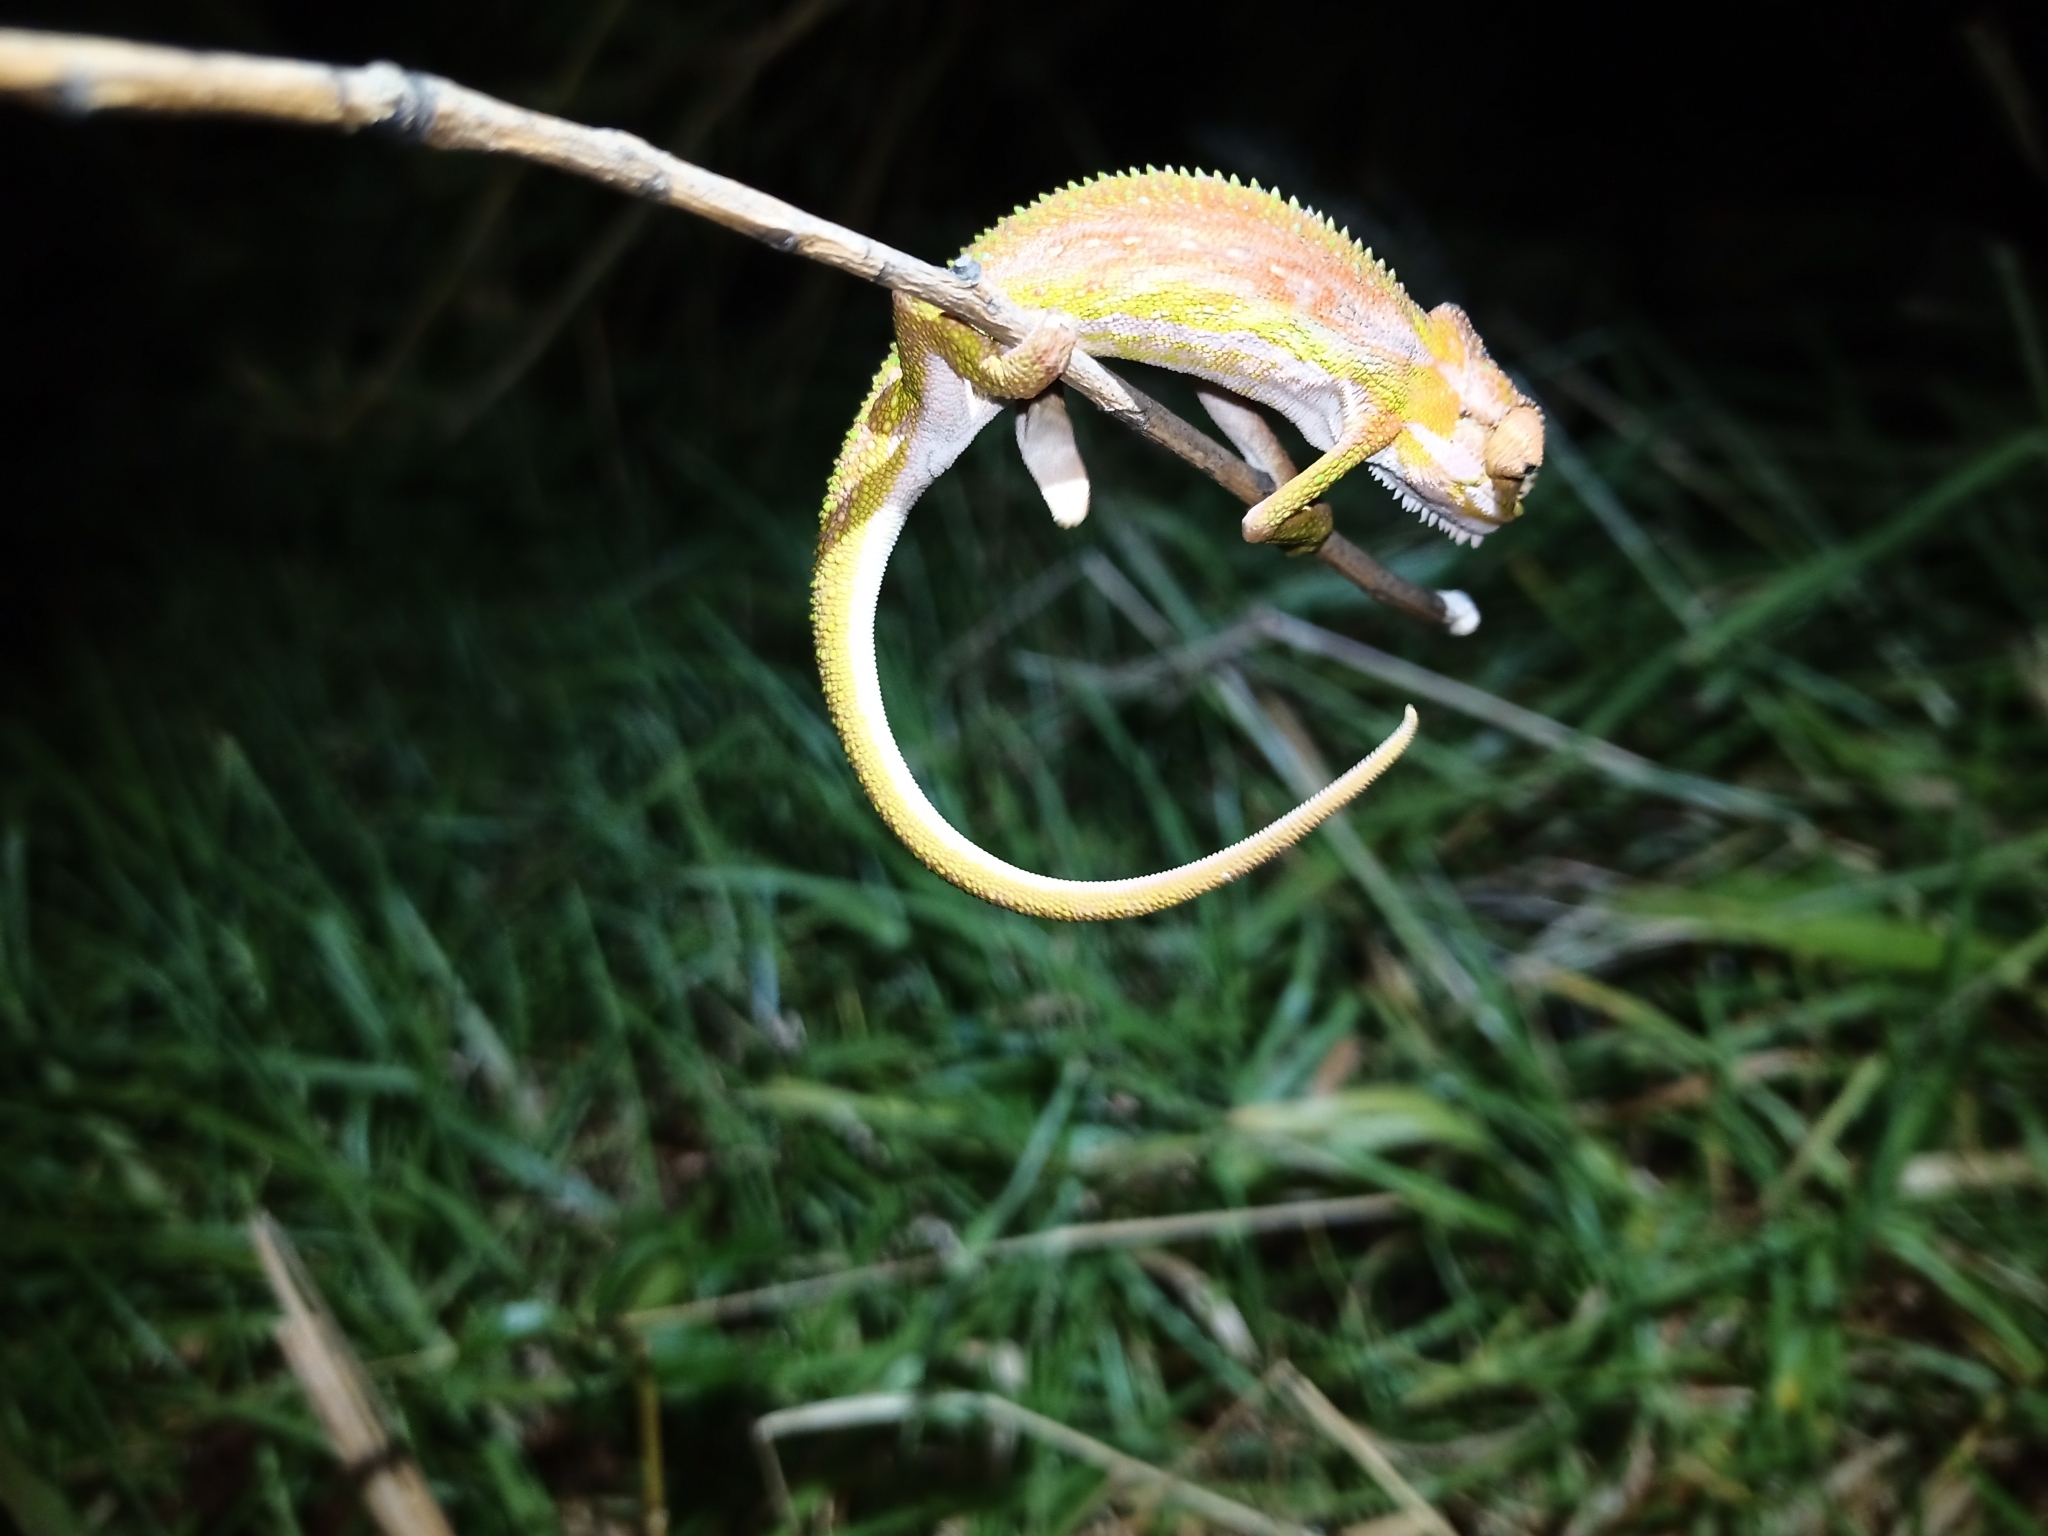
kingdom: Animalia
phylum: Chordata
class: Squamata
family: Chamaeleonidae
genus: Bradypodion
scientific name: Bradypodion pumilum
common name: Cape dwarf chameleon
